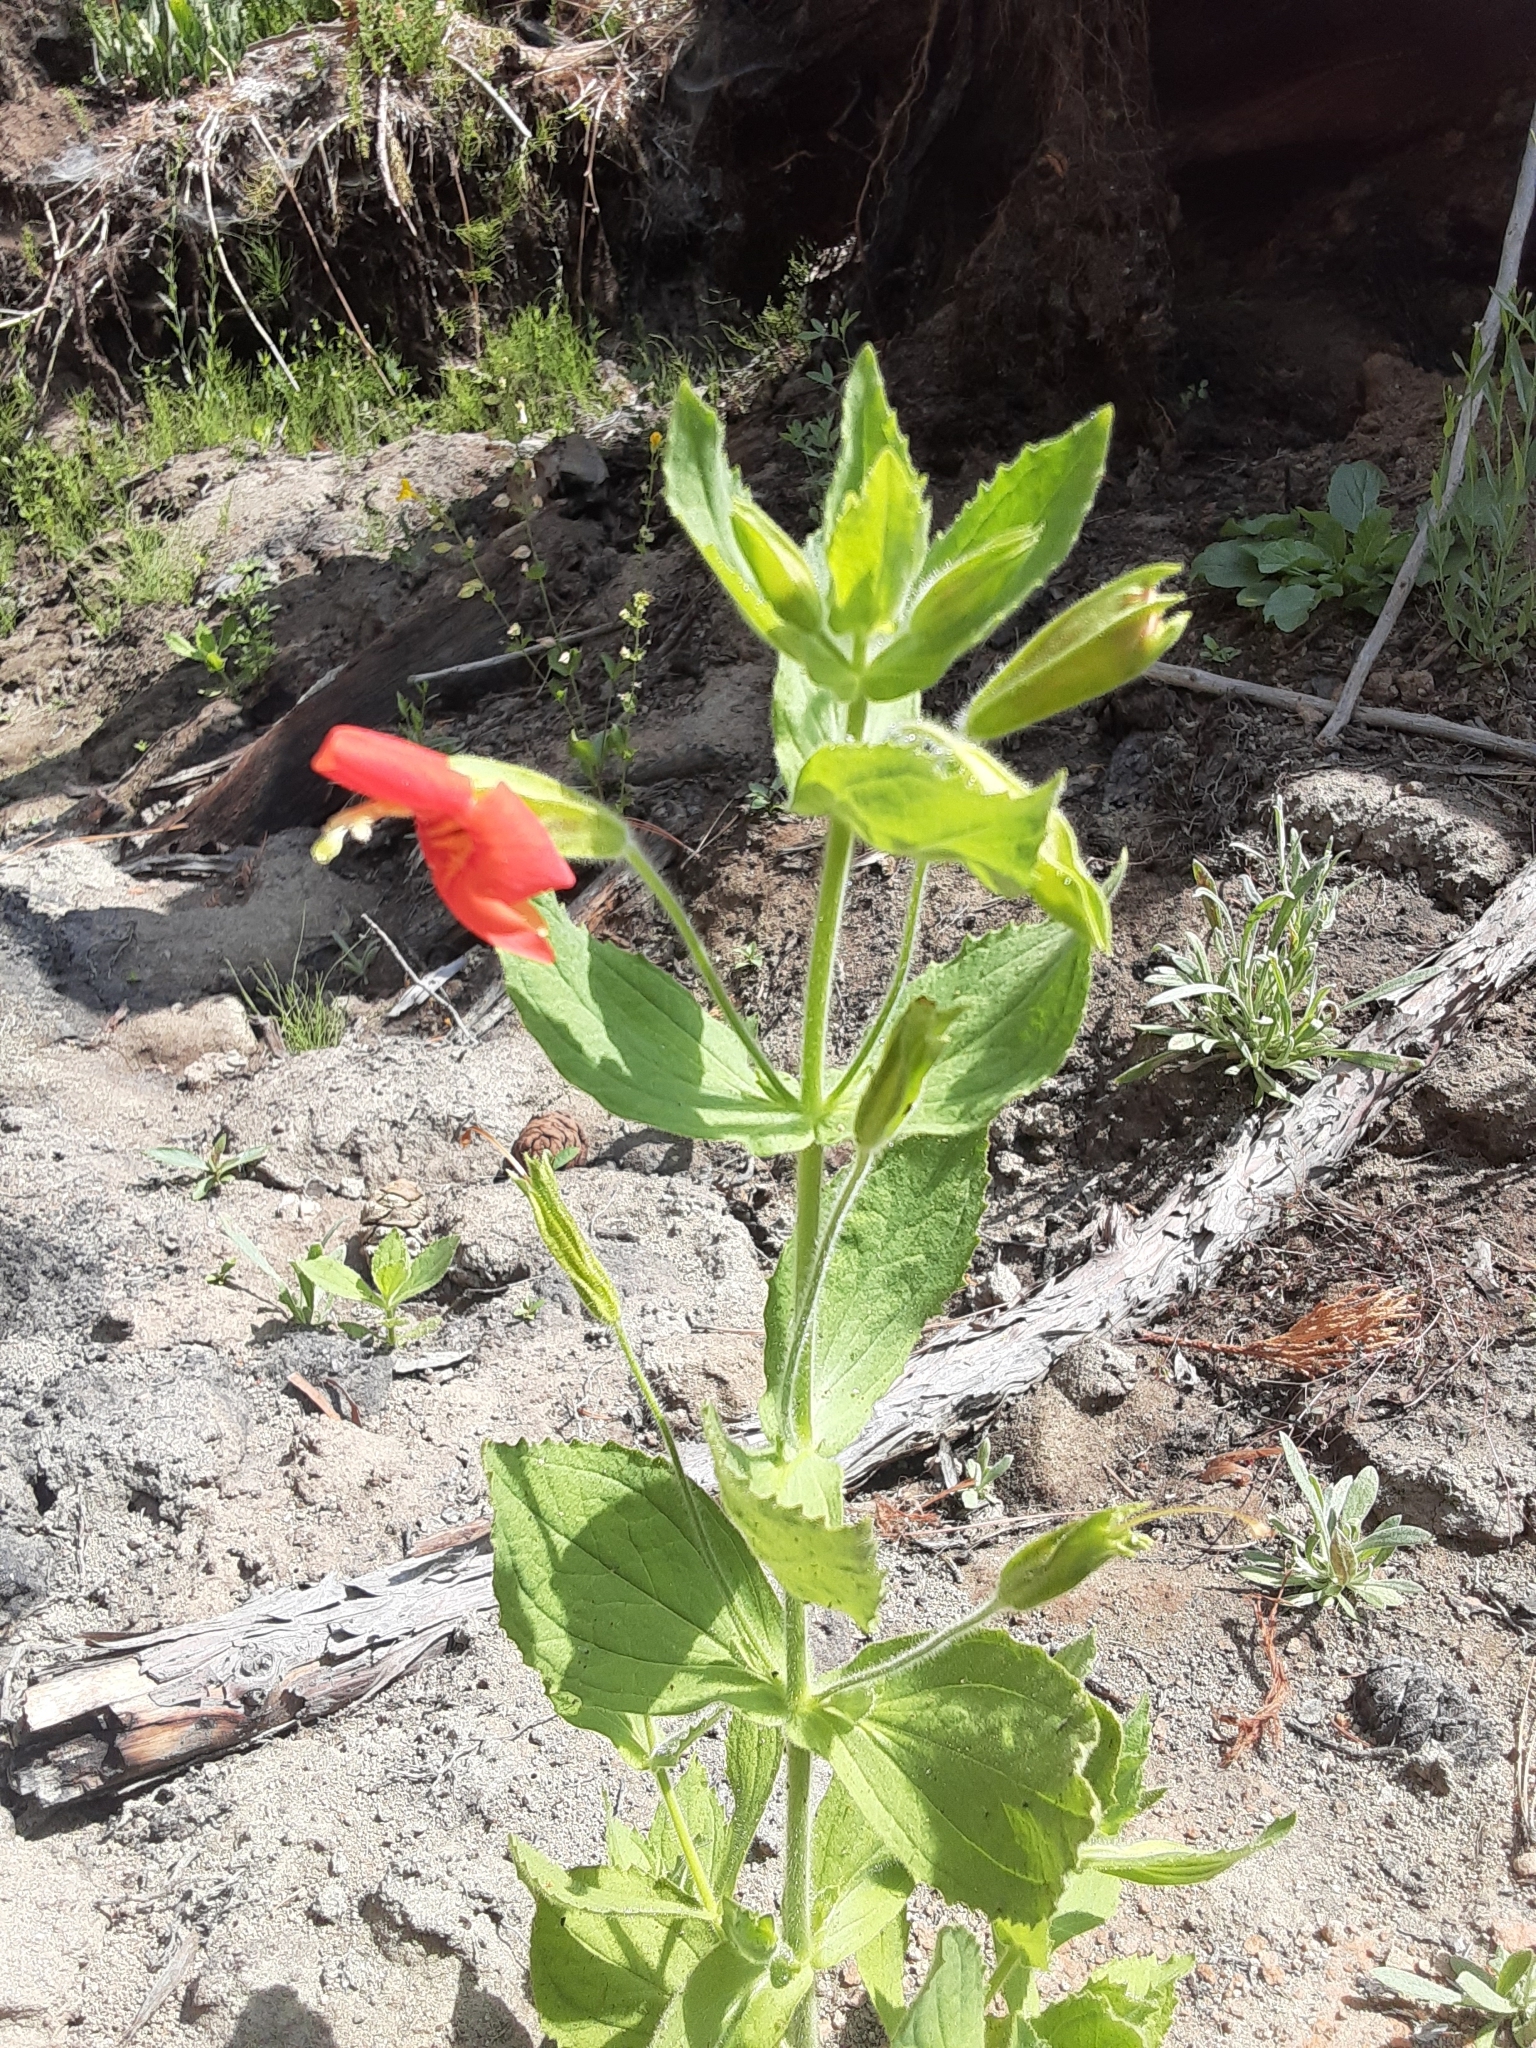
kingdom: Plantae
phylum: Tracheophyta
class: Magnoliopsida
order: Lamiales
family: Phrymaceae
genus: Erythranthe
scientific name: Erythranthe cardinalis
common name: Scarlet monkey-flower
